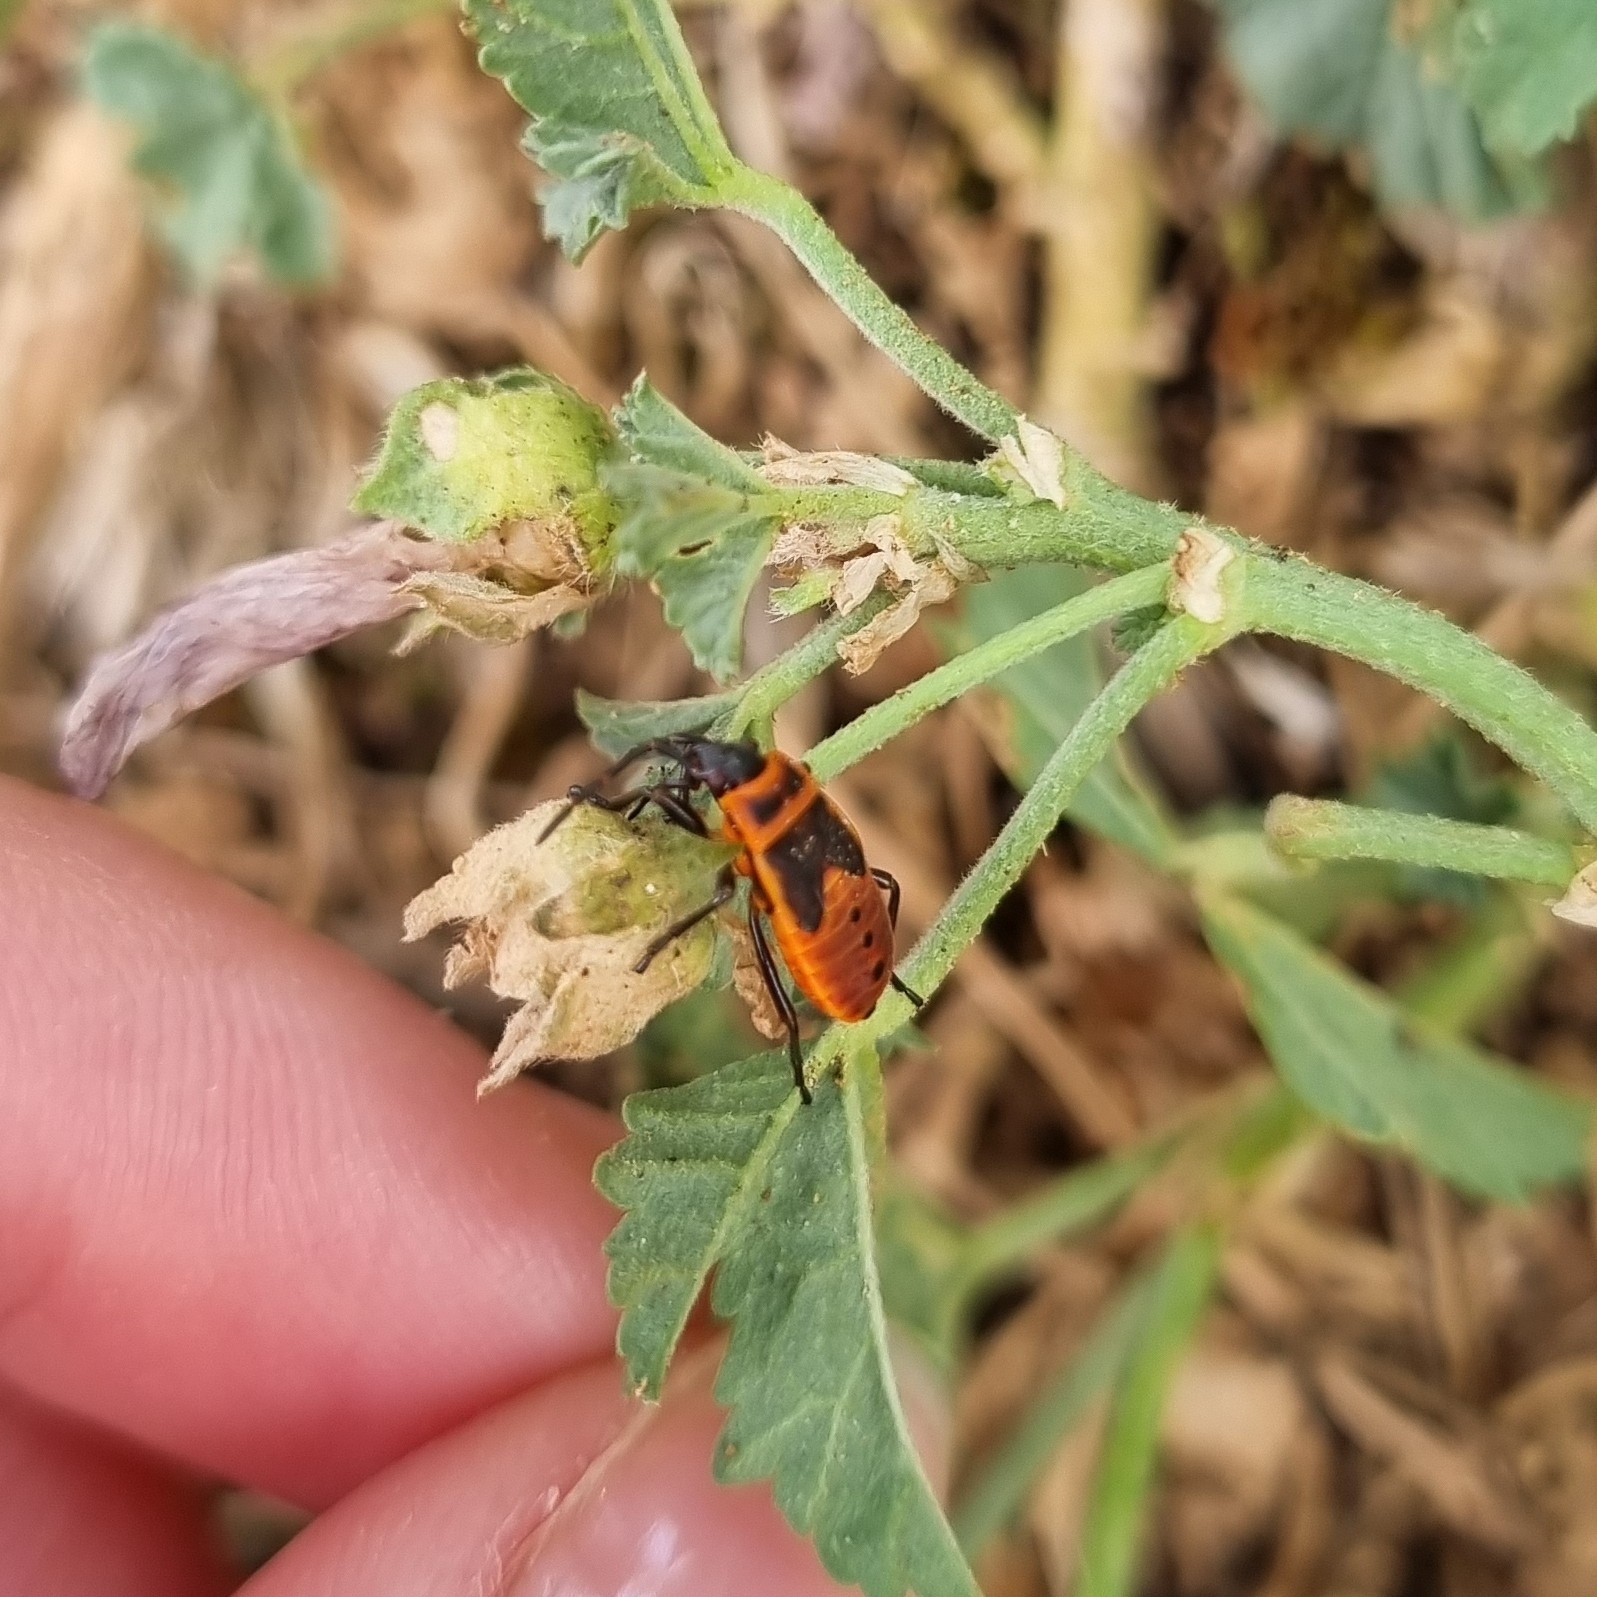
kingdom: Animalia
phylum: Arthropoda
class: Insecta
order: Hemiptera
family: Pyrrhocoridae
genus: Pyrrhocoris
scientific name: Pyrrhocoris apterus
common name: Firebug
